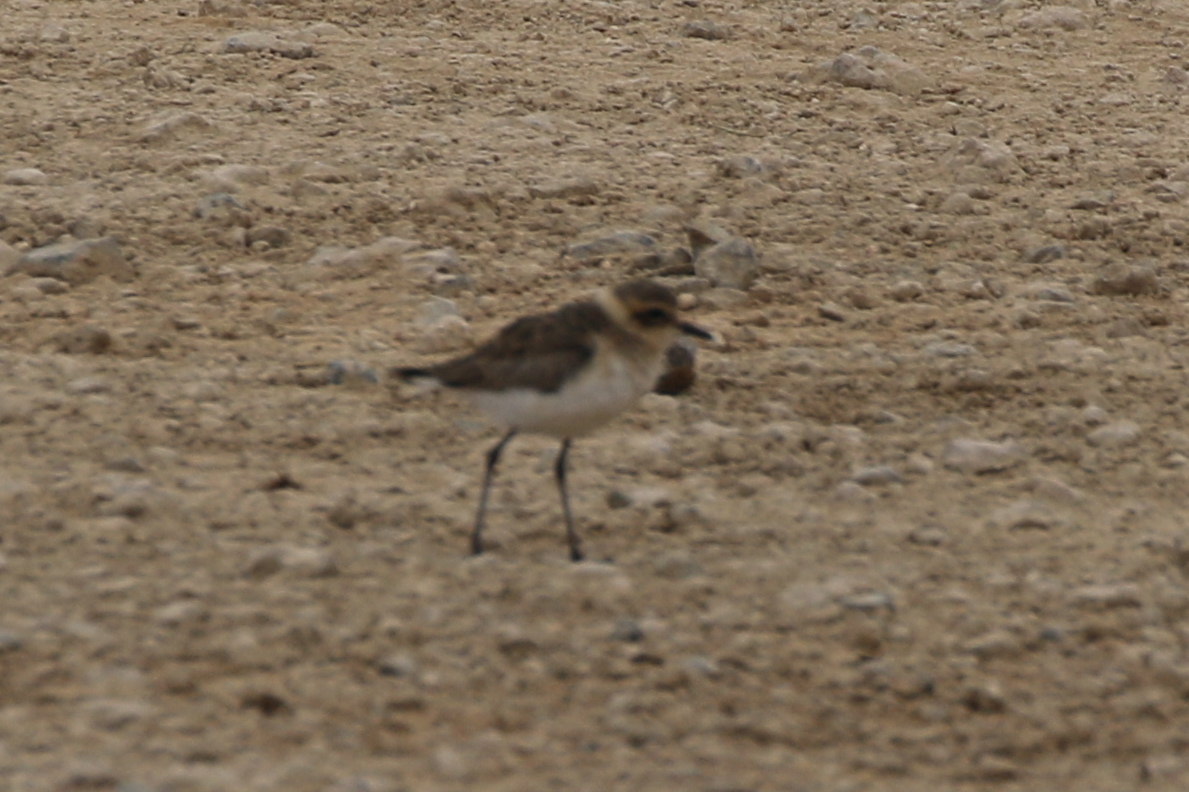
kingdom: Animalia
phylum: Chordata
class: Aves
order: Charadriiformes
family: Charadriidae
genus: Anarhynchus
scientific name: Anarhynchus
